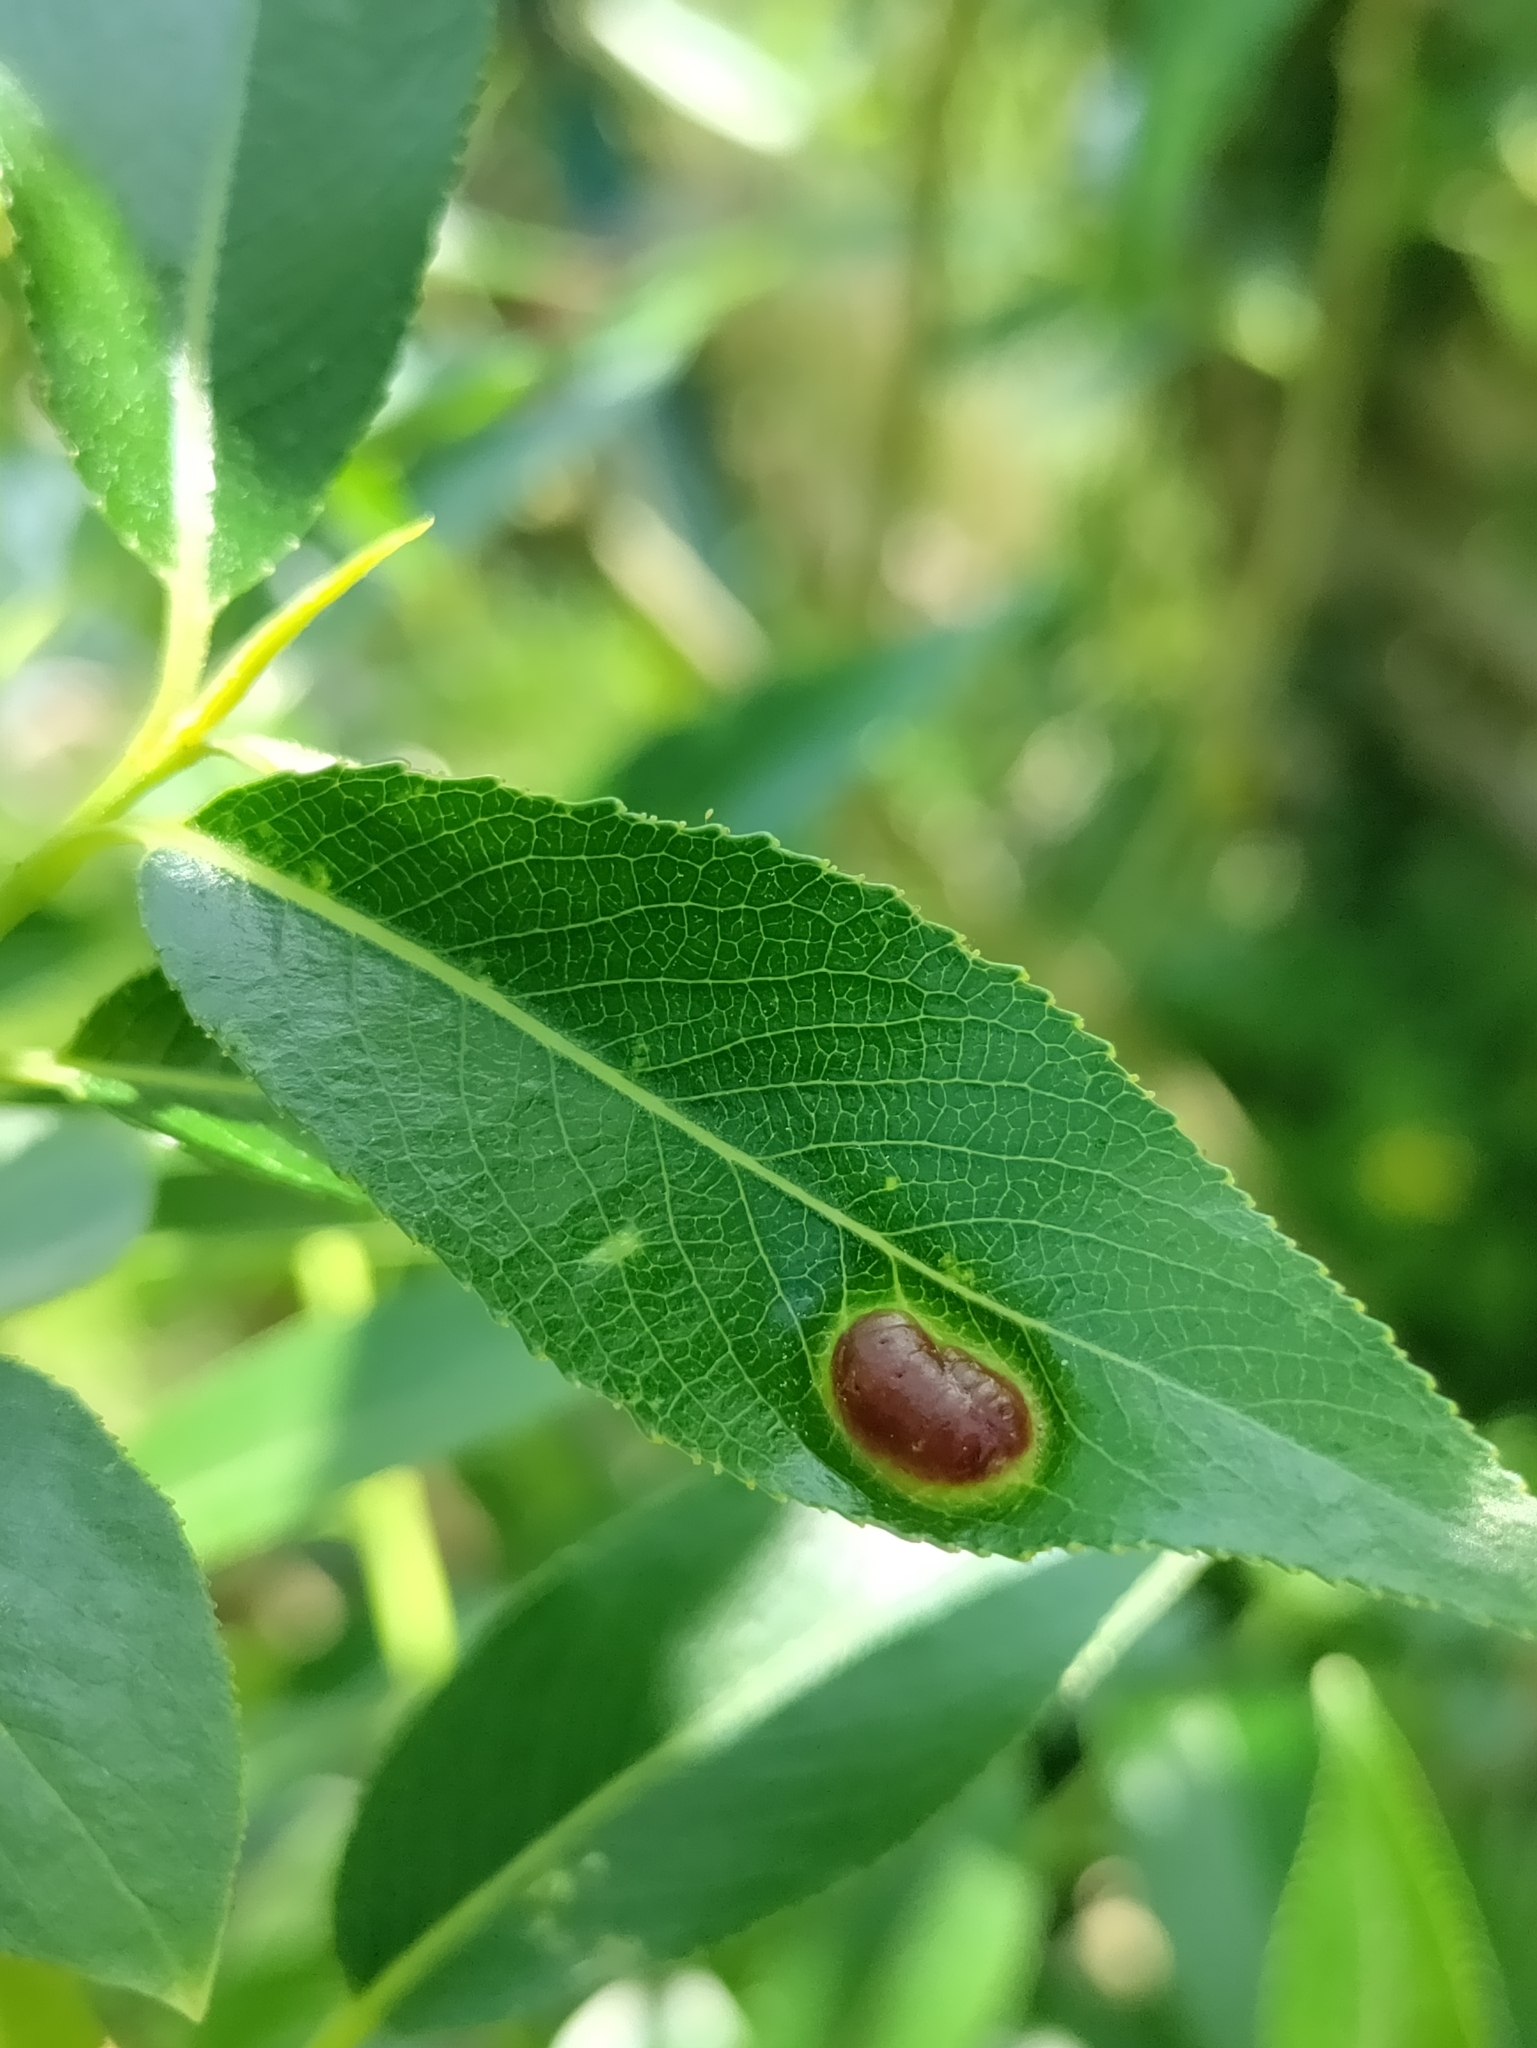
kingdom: Animalia
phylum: Arthropoda
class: Insecta
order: Hymenoptera
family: Tenthredinidae
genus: Pontania
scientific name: Pontania proxima
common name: Common sawfly
